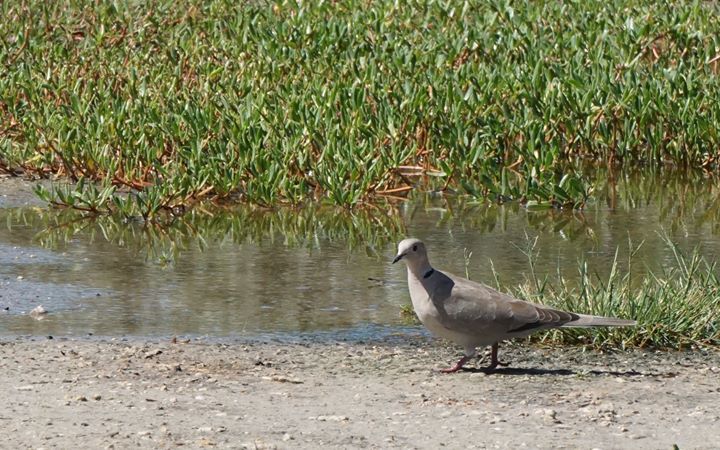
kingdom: Animalia
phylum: Chordata
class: Aves
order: Columbiformes
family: Columbidae
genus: Streptopelia
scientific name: Streptopelia decaocto
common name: Eurasian collared dove
